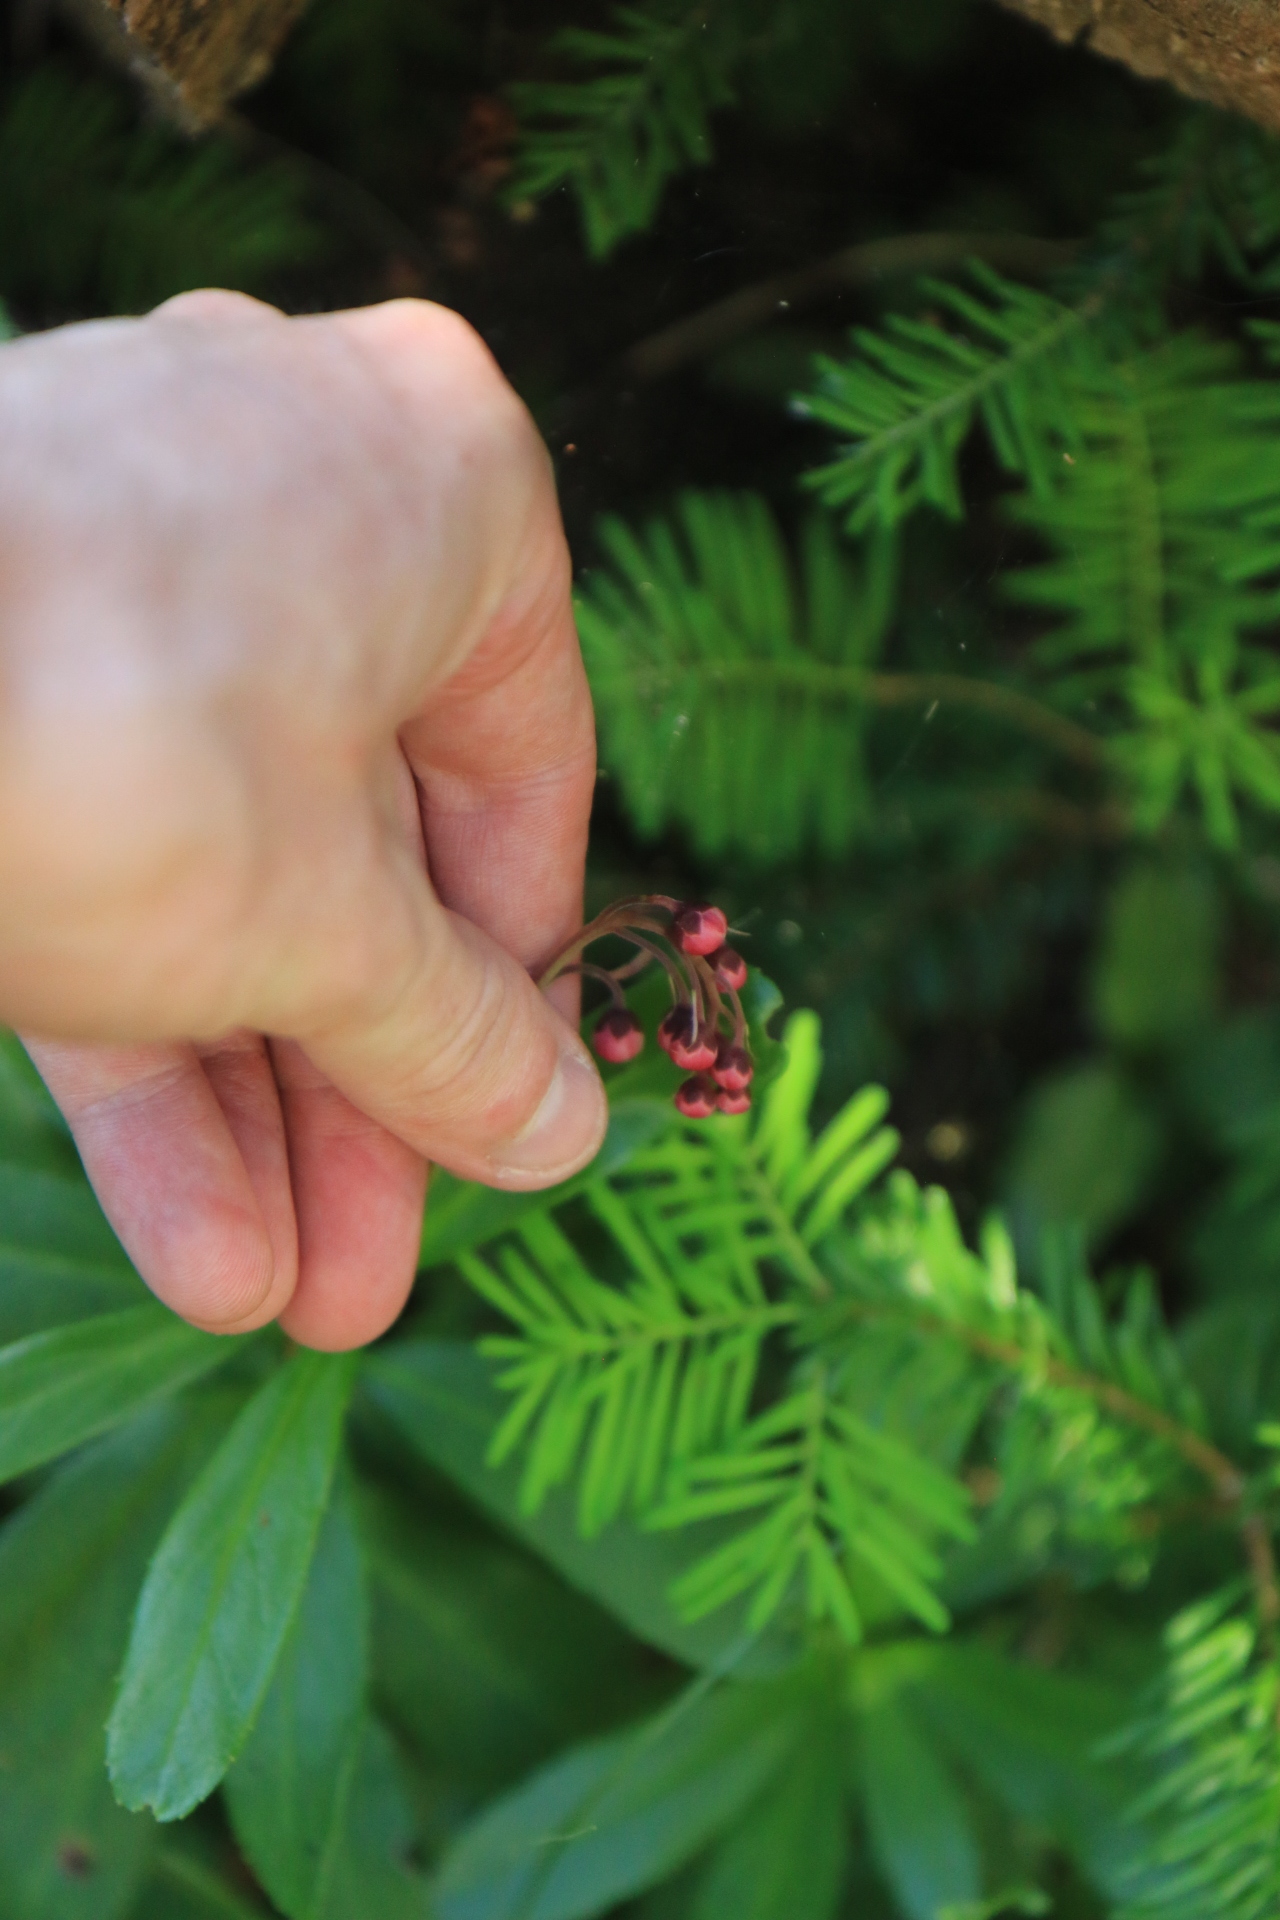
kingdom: Plantae
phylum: Tracheophyta
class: Magnoliopsida
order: Ericales
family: Ericaceae
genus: Chimaphila
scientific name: Chimaphila umbellata
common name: Pipsissewa
